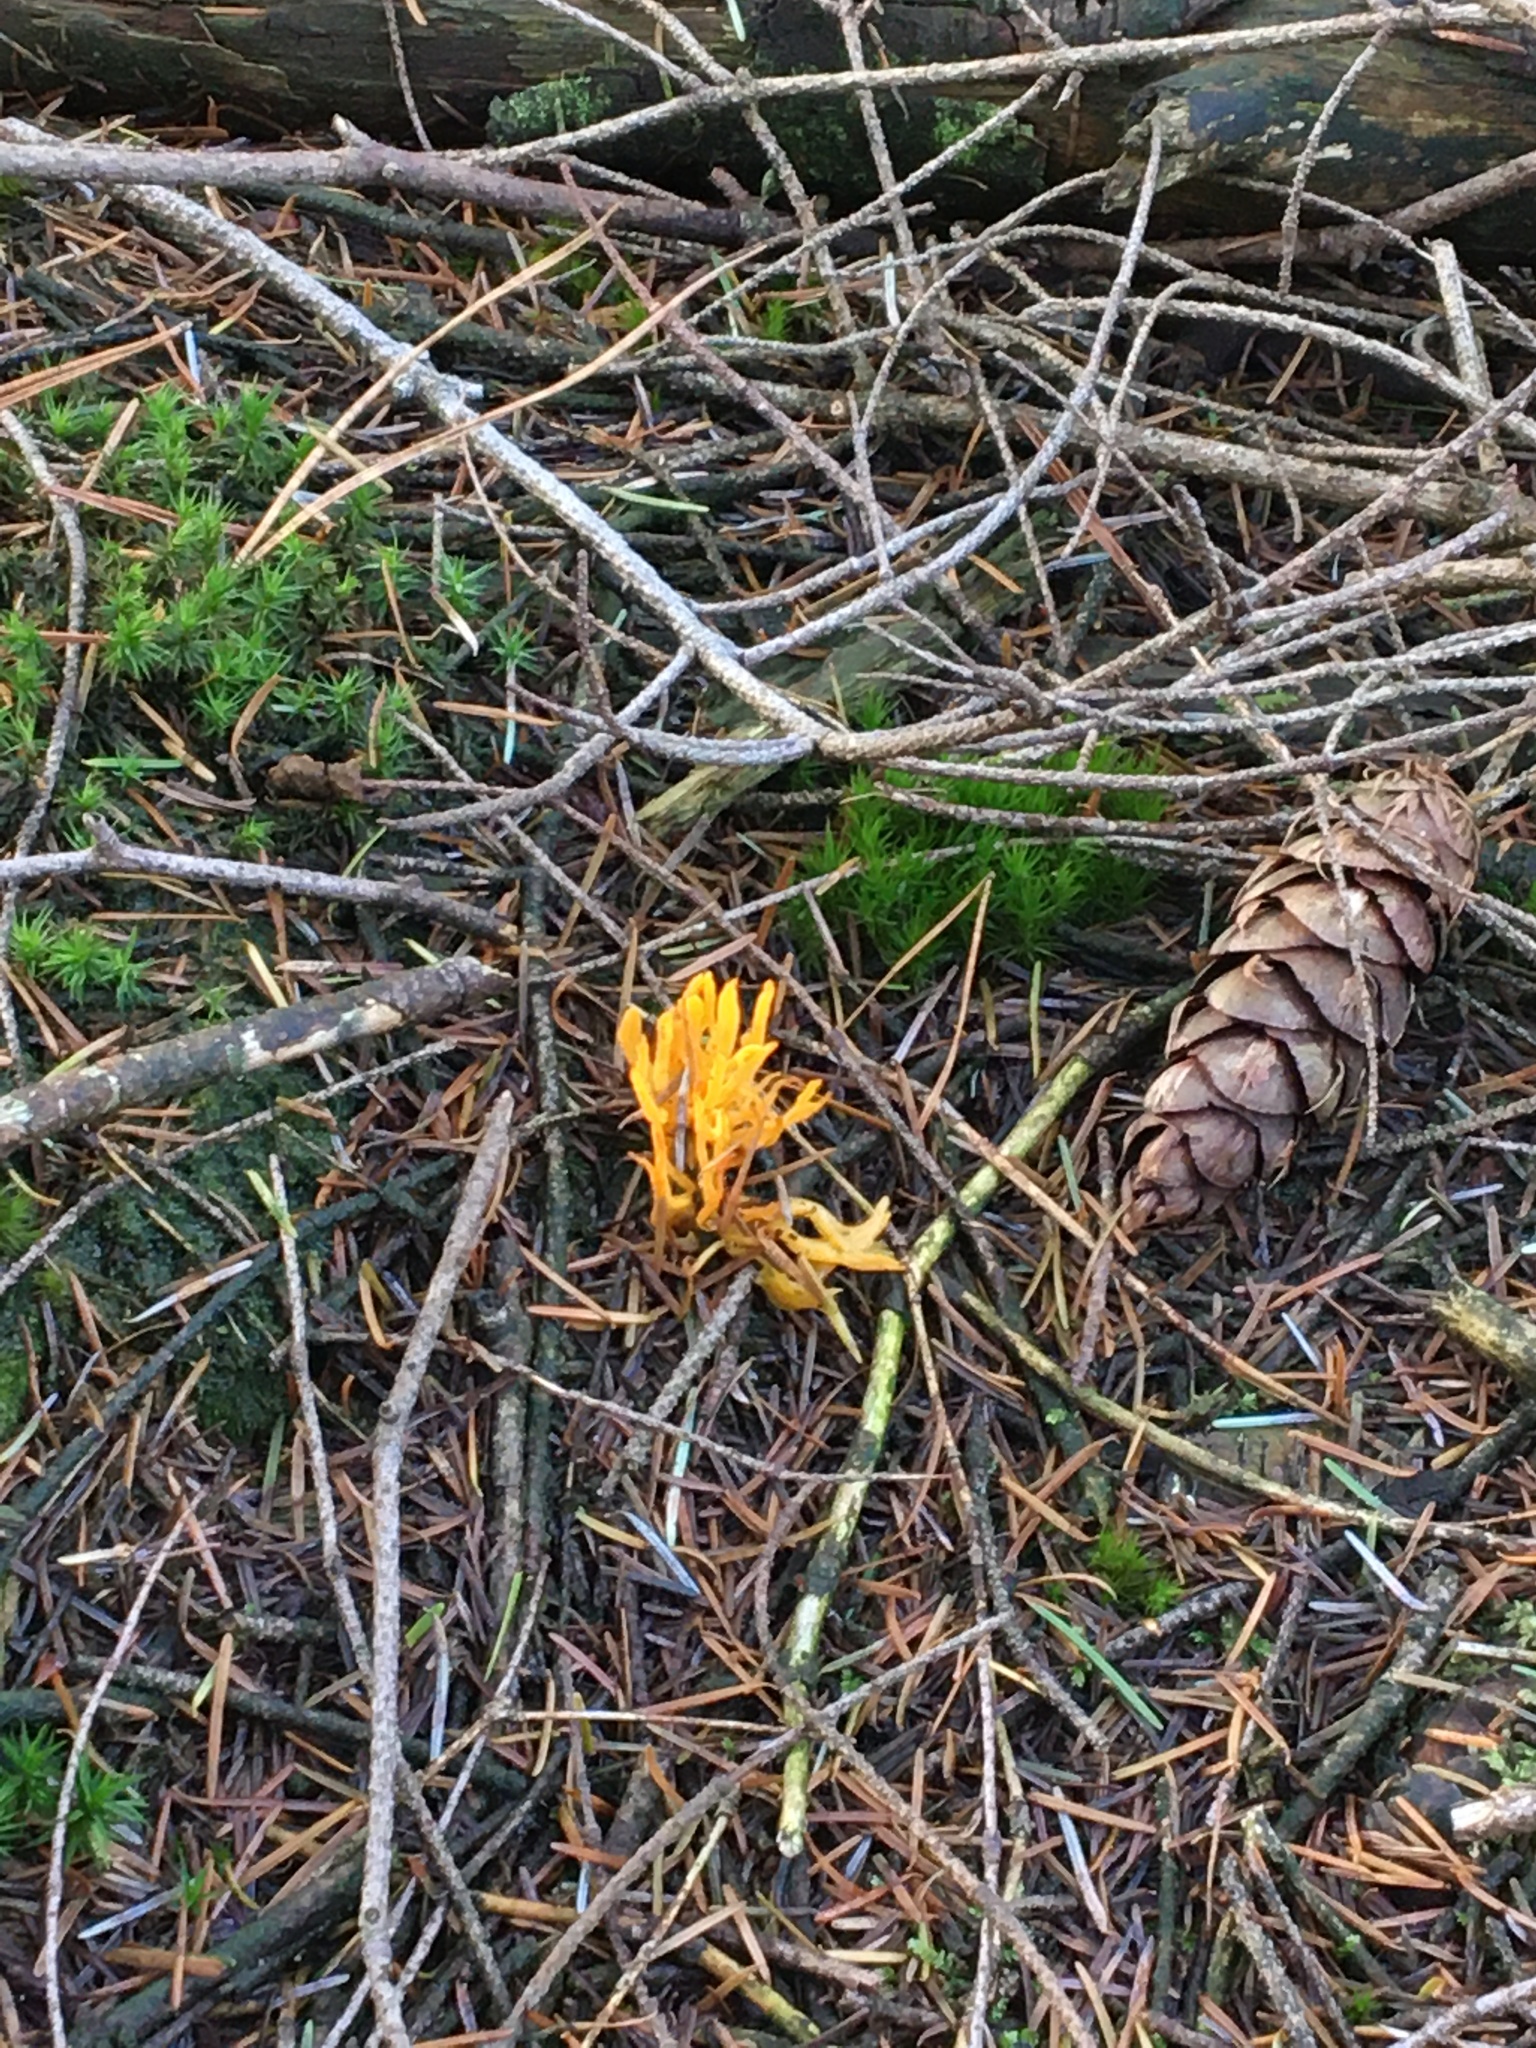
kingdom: Fungi
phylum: Basidiomycota
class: Dacrymycetes
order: Dacrymycetales
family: Dacrymycetaceae
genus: Calocera
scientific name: Calocera viscosa
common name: Yellow stagshorn
